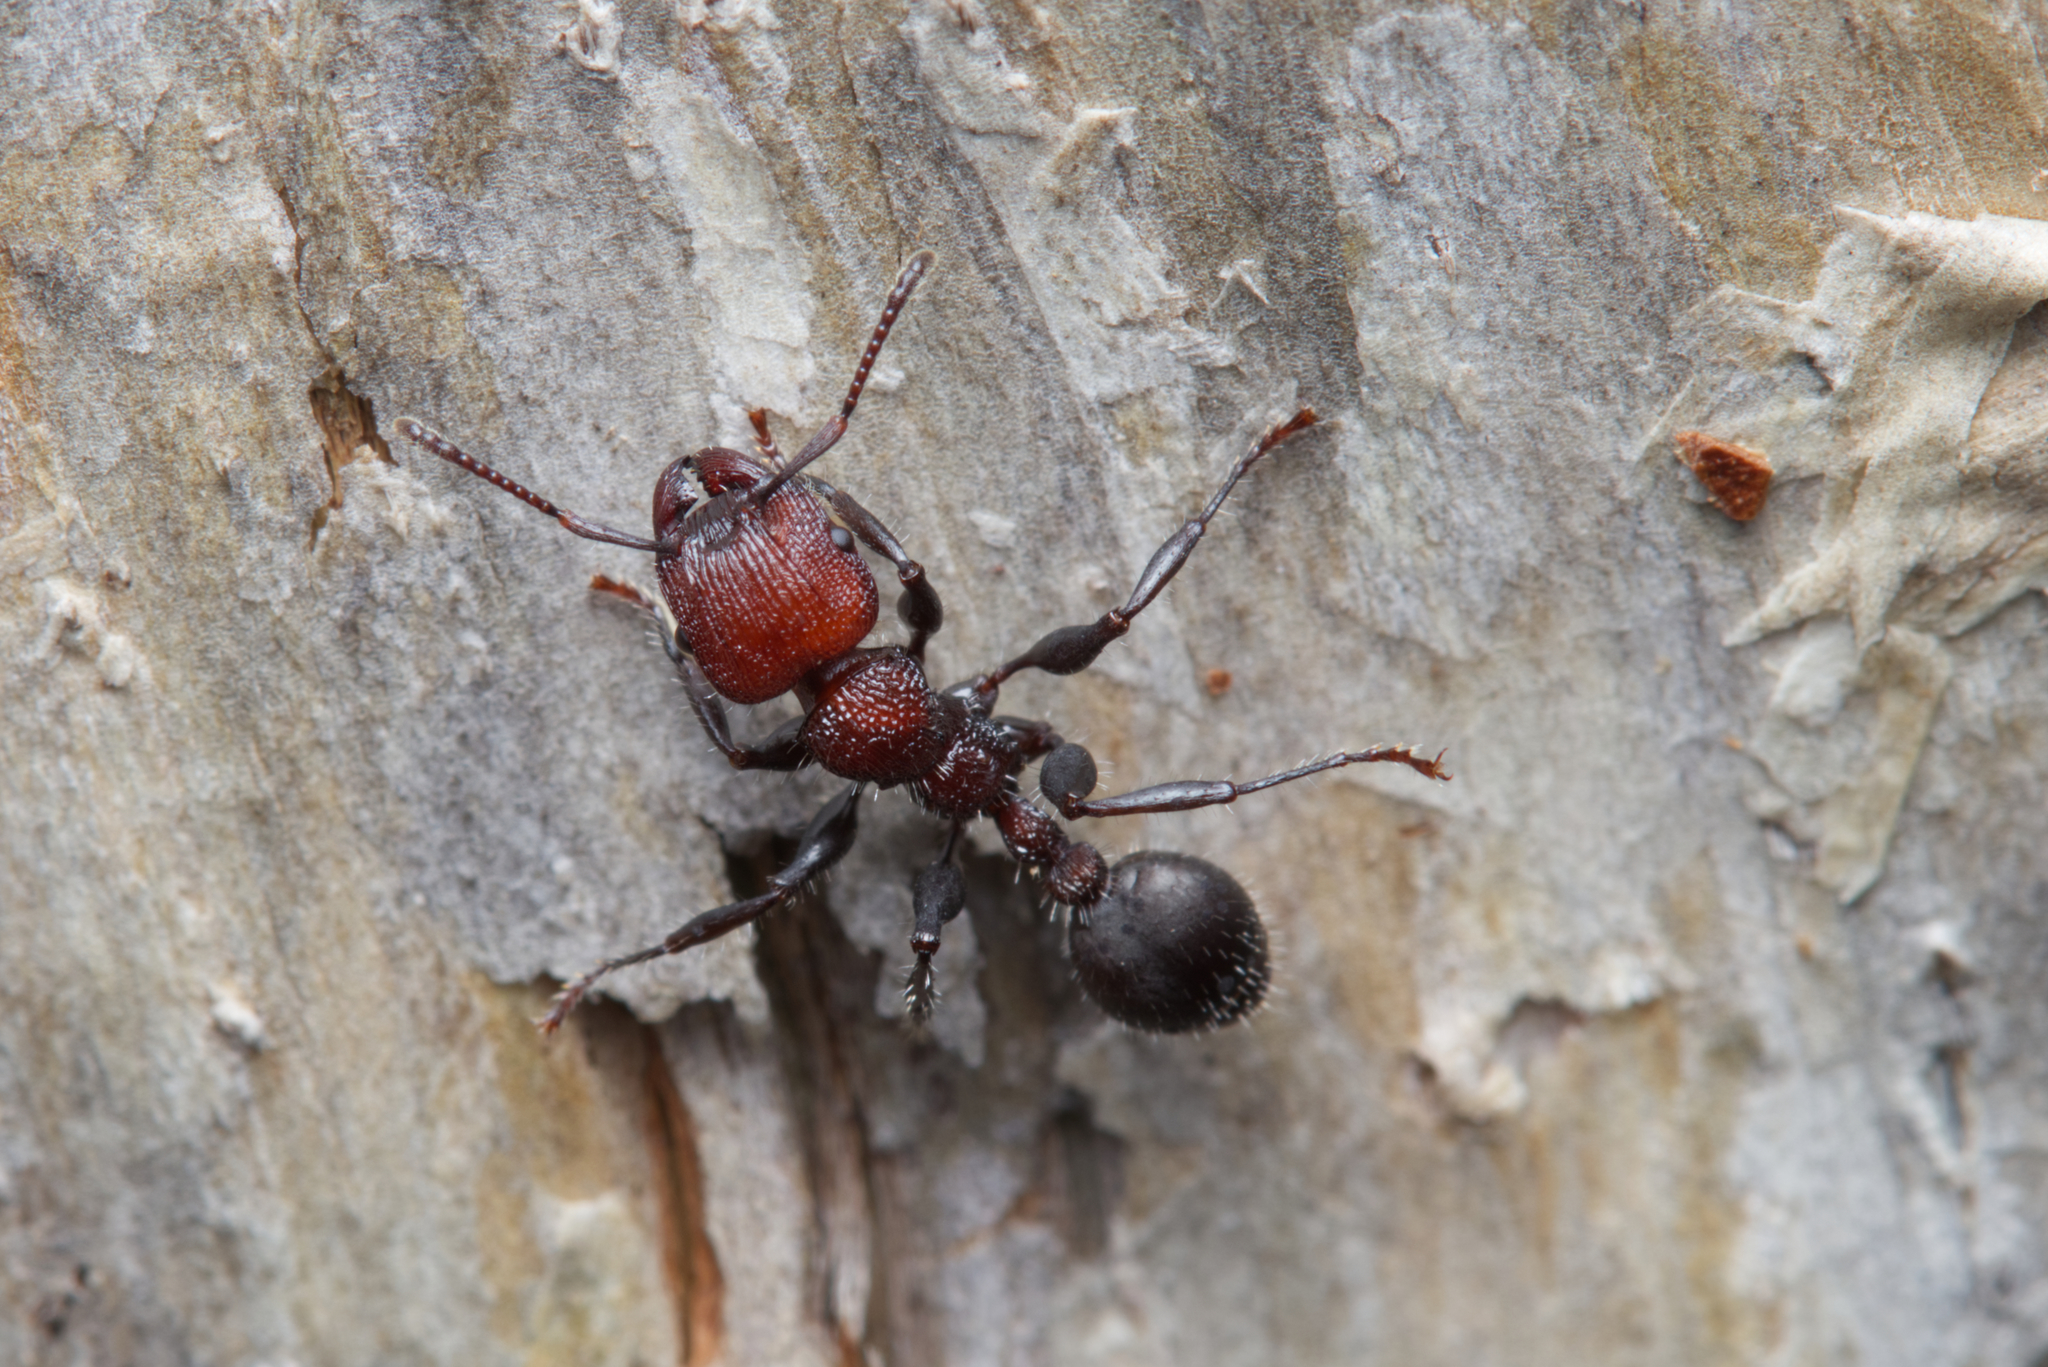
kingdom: Animalia
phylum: Arthropoda
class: Insecta
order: Hymenoptera
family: Formicidae
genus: Podomyrma
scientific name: Podomyrma micans
